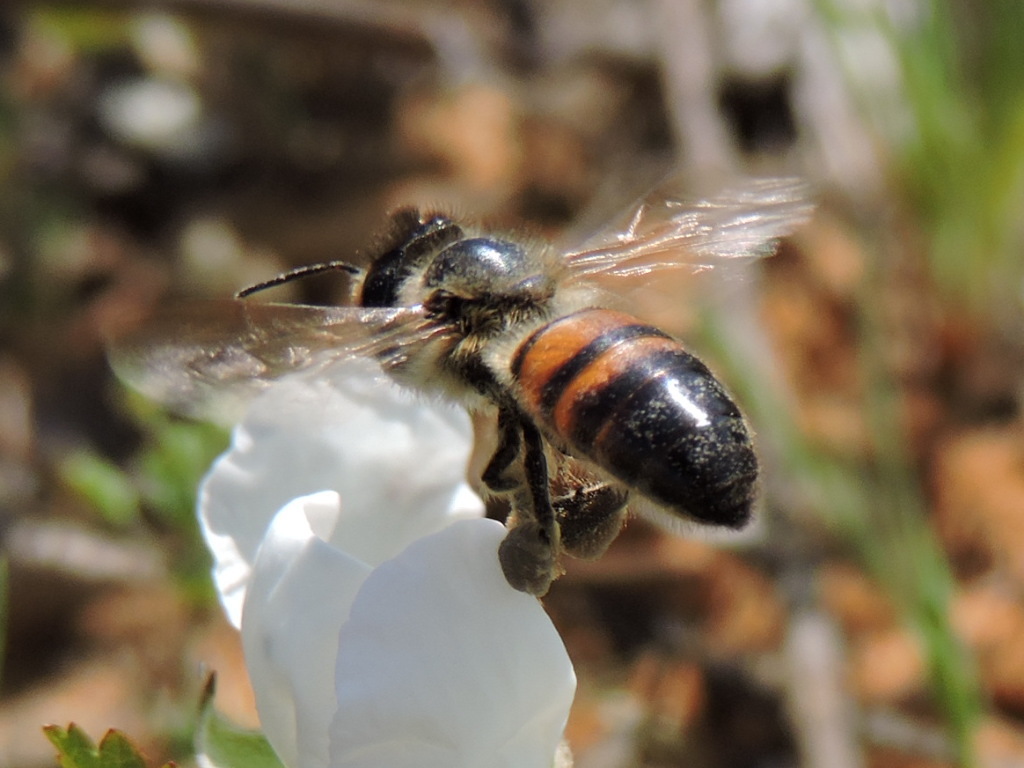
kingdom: Animalia
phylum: Arthropoda
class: Insecta
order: Hymenoptera
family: Apidae
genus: Apis
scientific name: Apis mellifera
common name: Honey bee
